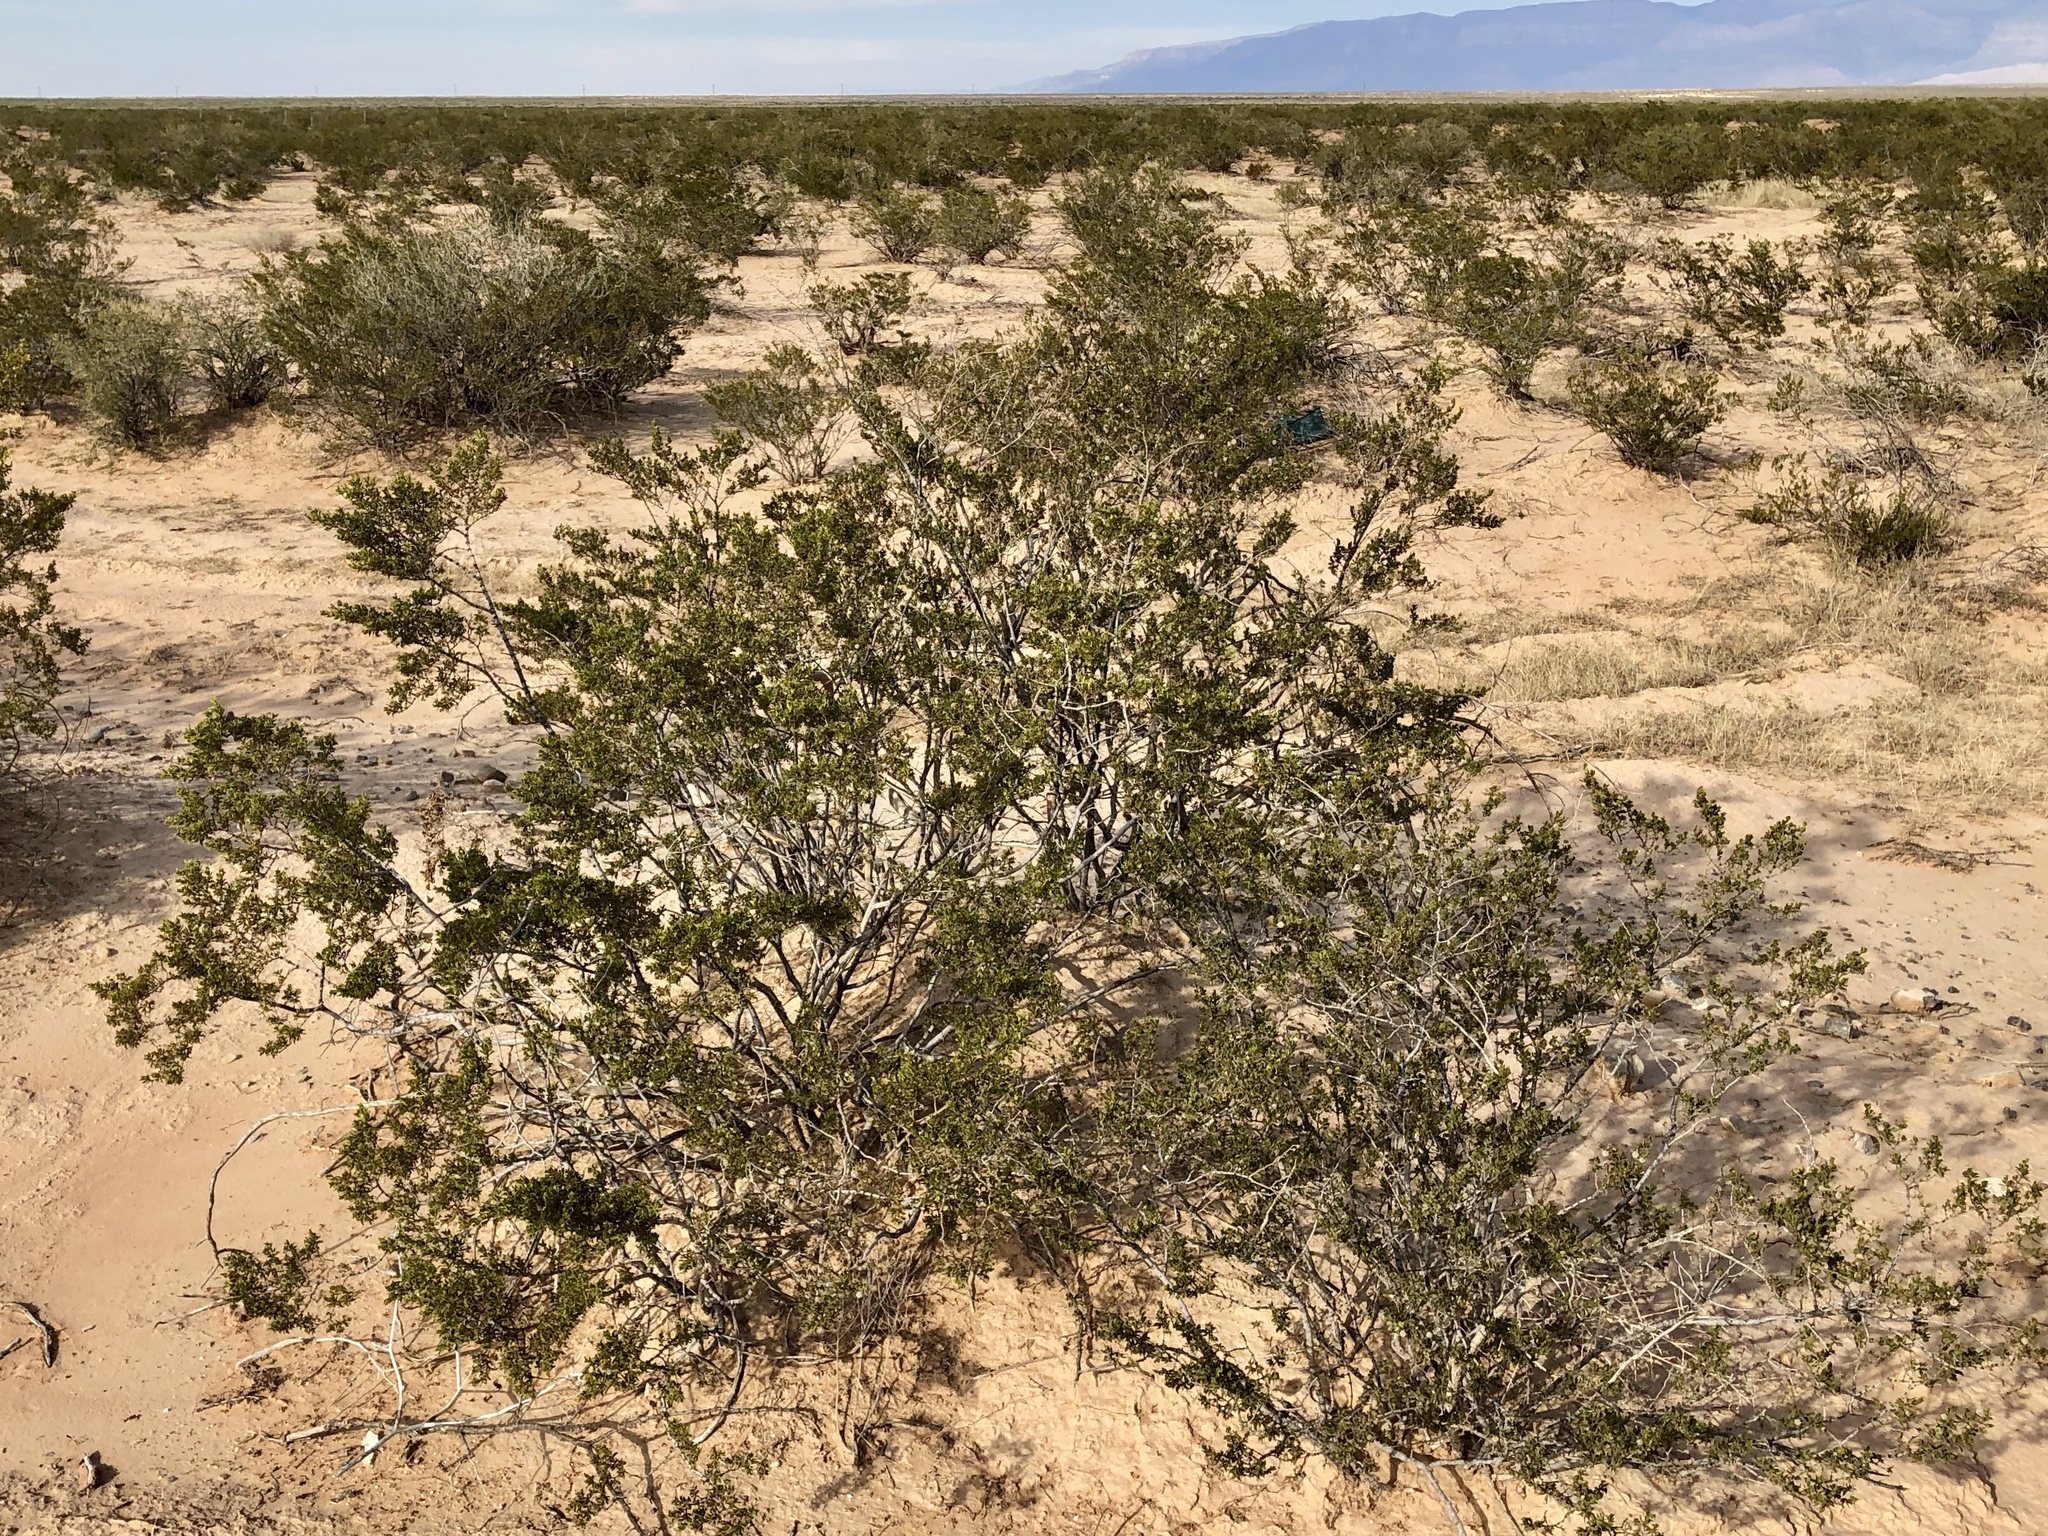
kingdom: Plantae
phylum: Tracheophyta
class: Magnoliopsida
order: Zygophyllales
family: Zygophyllaceae
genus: Larrea
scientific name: Larrea tridentata
